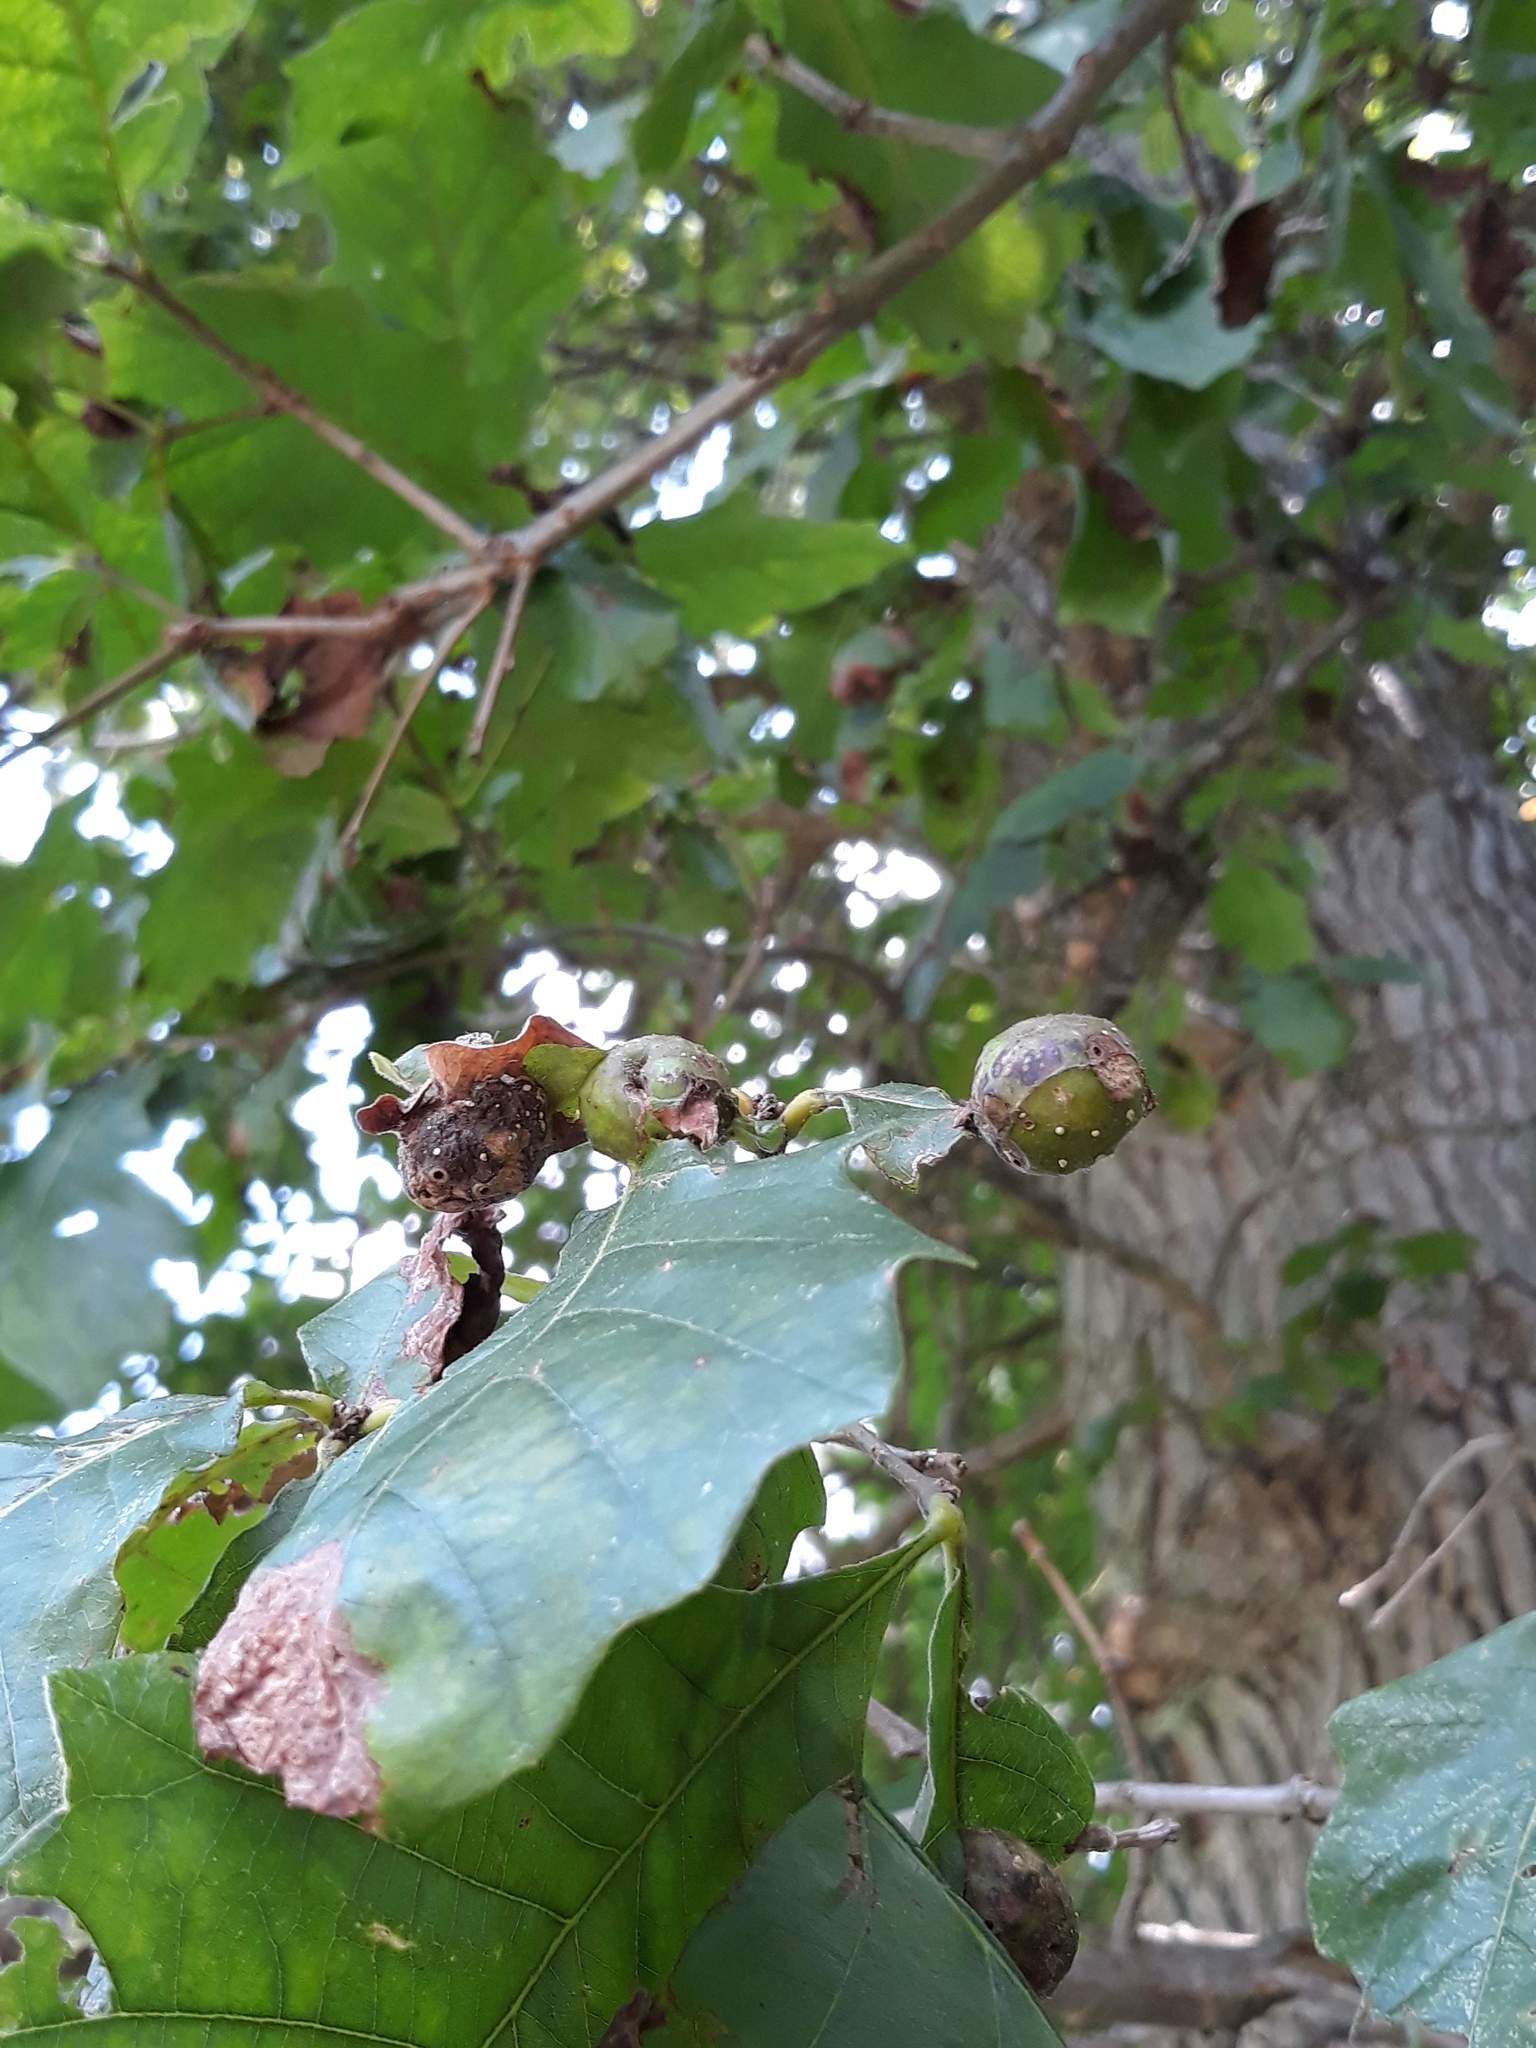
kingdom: Plantae
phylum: Tracheophyta
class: Magnoliopsida
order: Fagales
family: Fagaceae
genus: Quercus
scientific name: Quercus bicolor
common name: Swamp white oak
